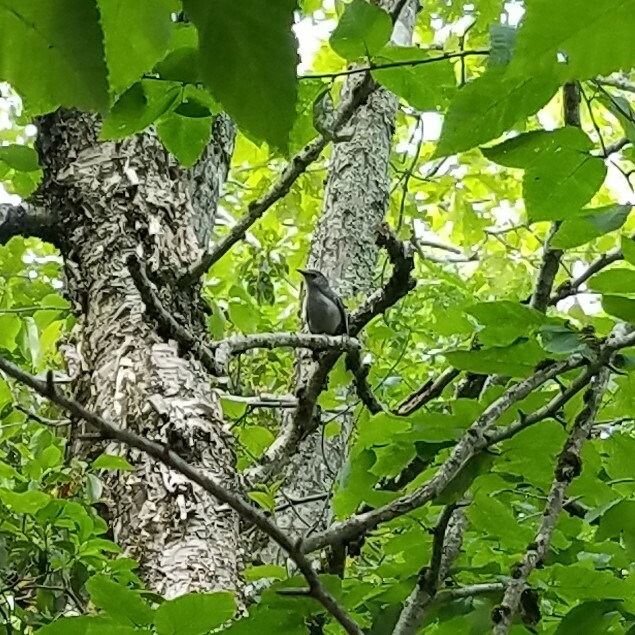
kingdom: Animalia
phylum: Chordata
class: Aves
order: Passeriformes
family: Mimidae
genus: Dumetella
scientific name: Dumetella carolinensis
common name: Gray catbird
